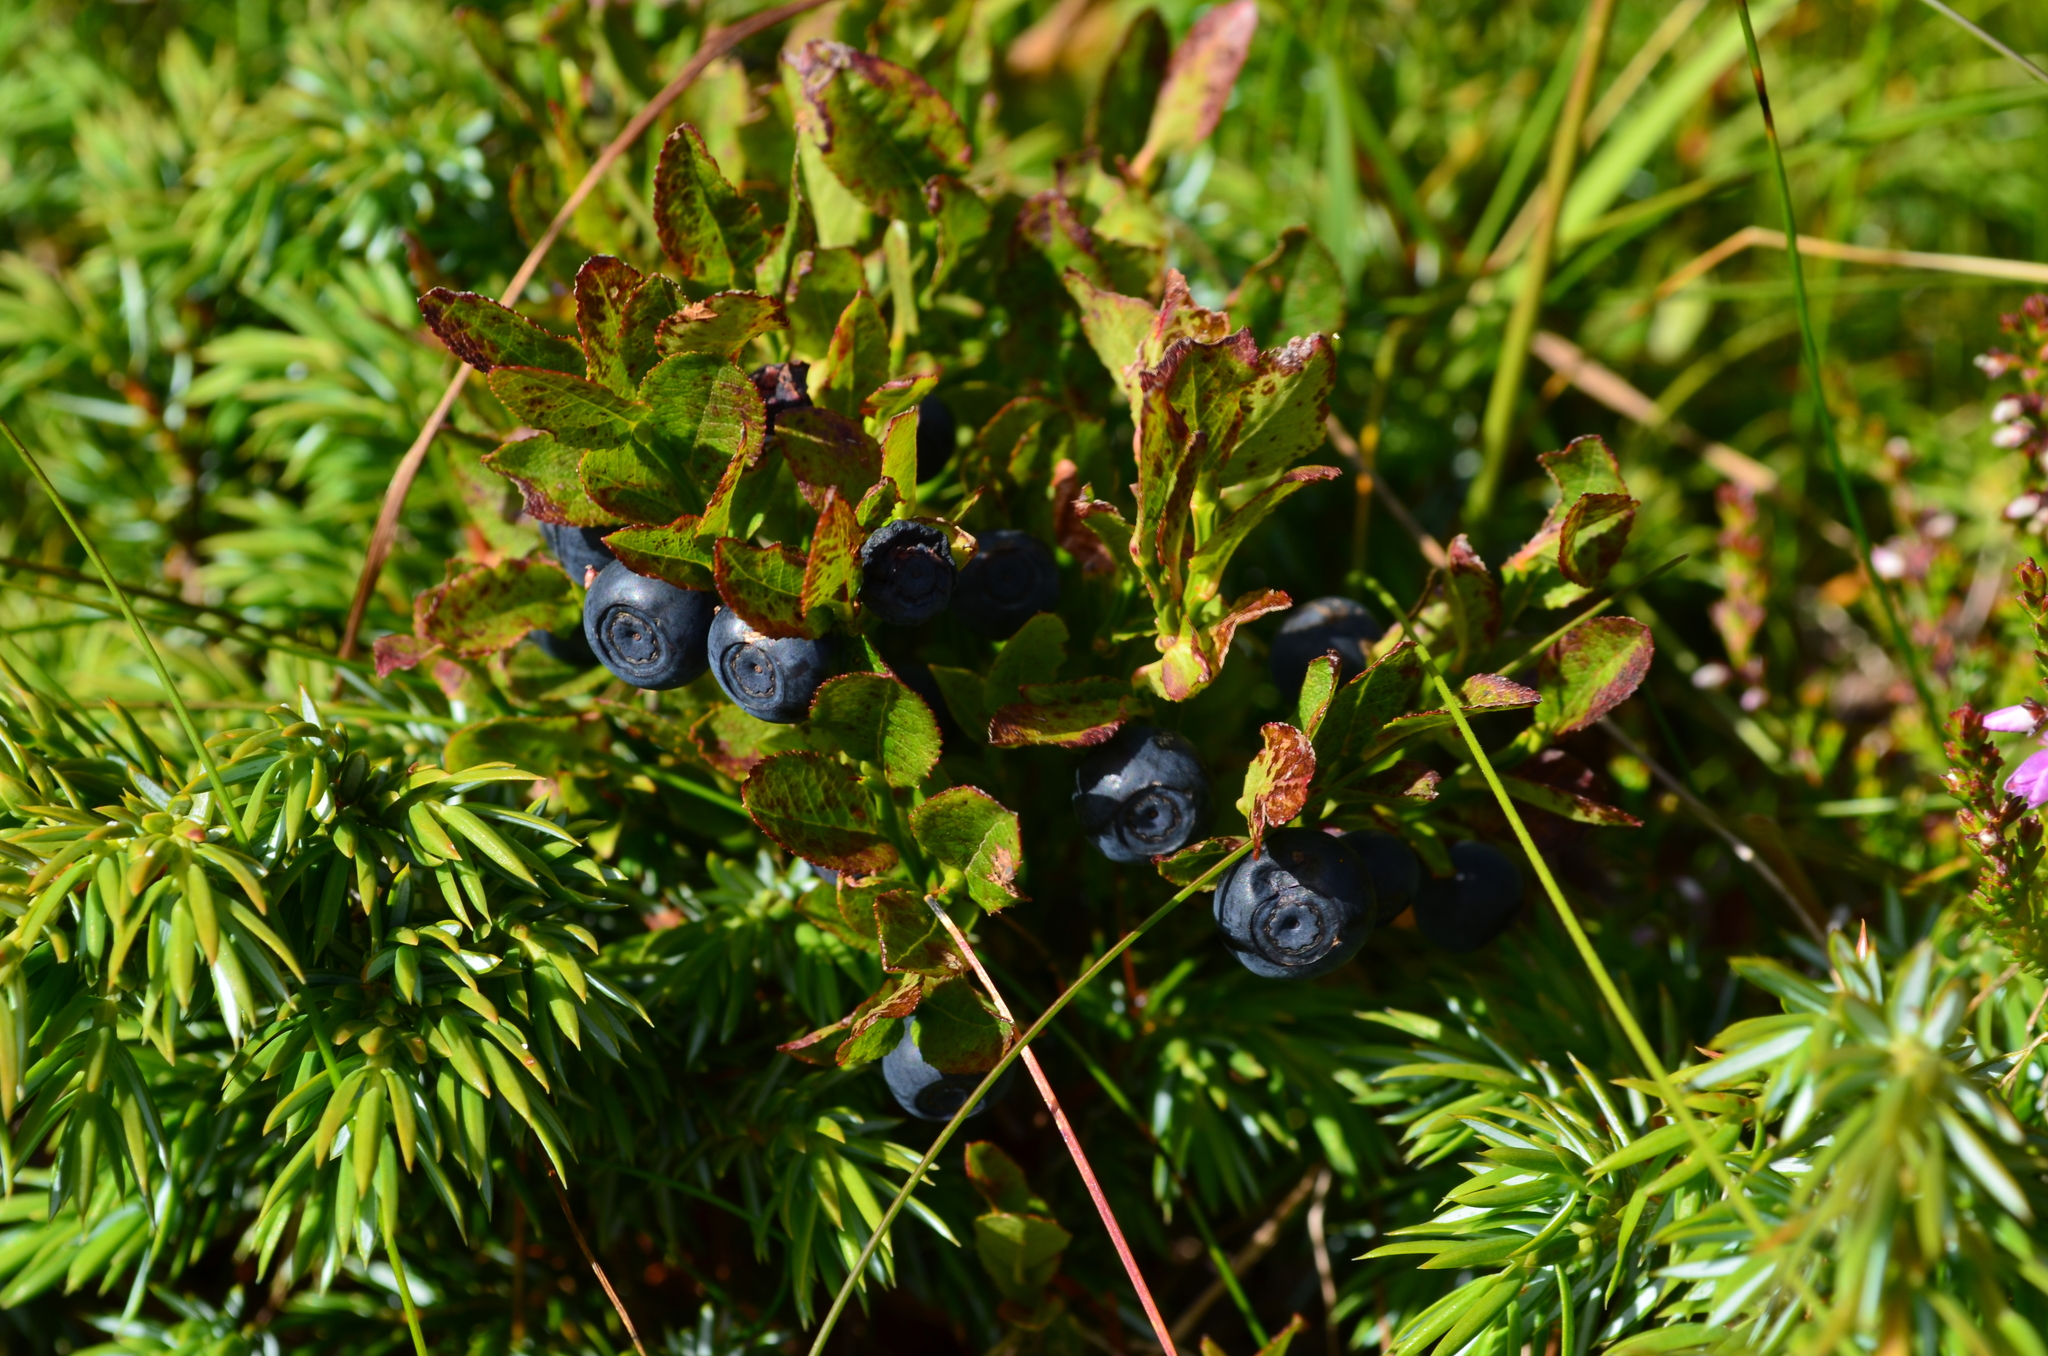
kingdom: Plantae
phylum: Tracheophyta
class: Magnoliopsida
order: Ericales
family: Ericaceae
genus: Vaccinium
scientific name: Vaccinium myrtillus
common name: Bilberry
